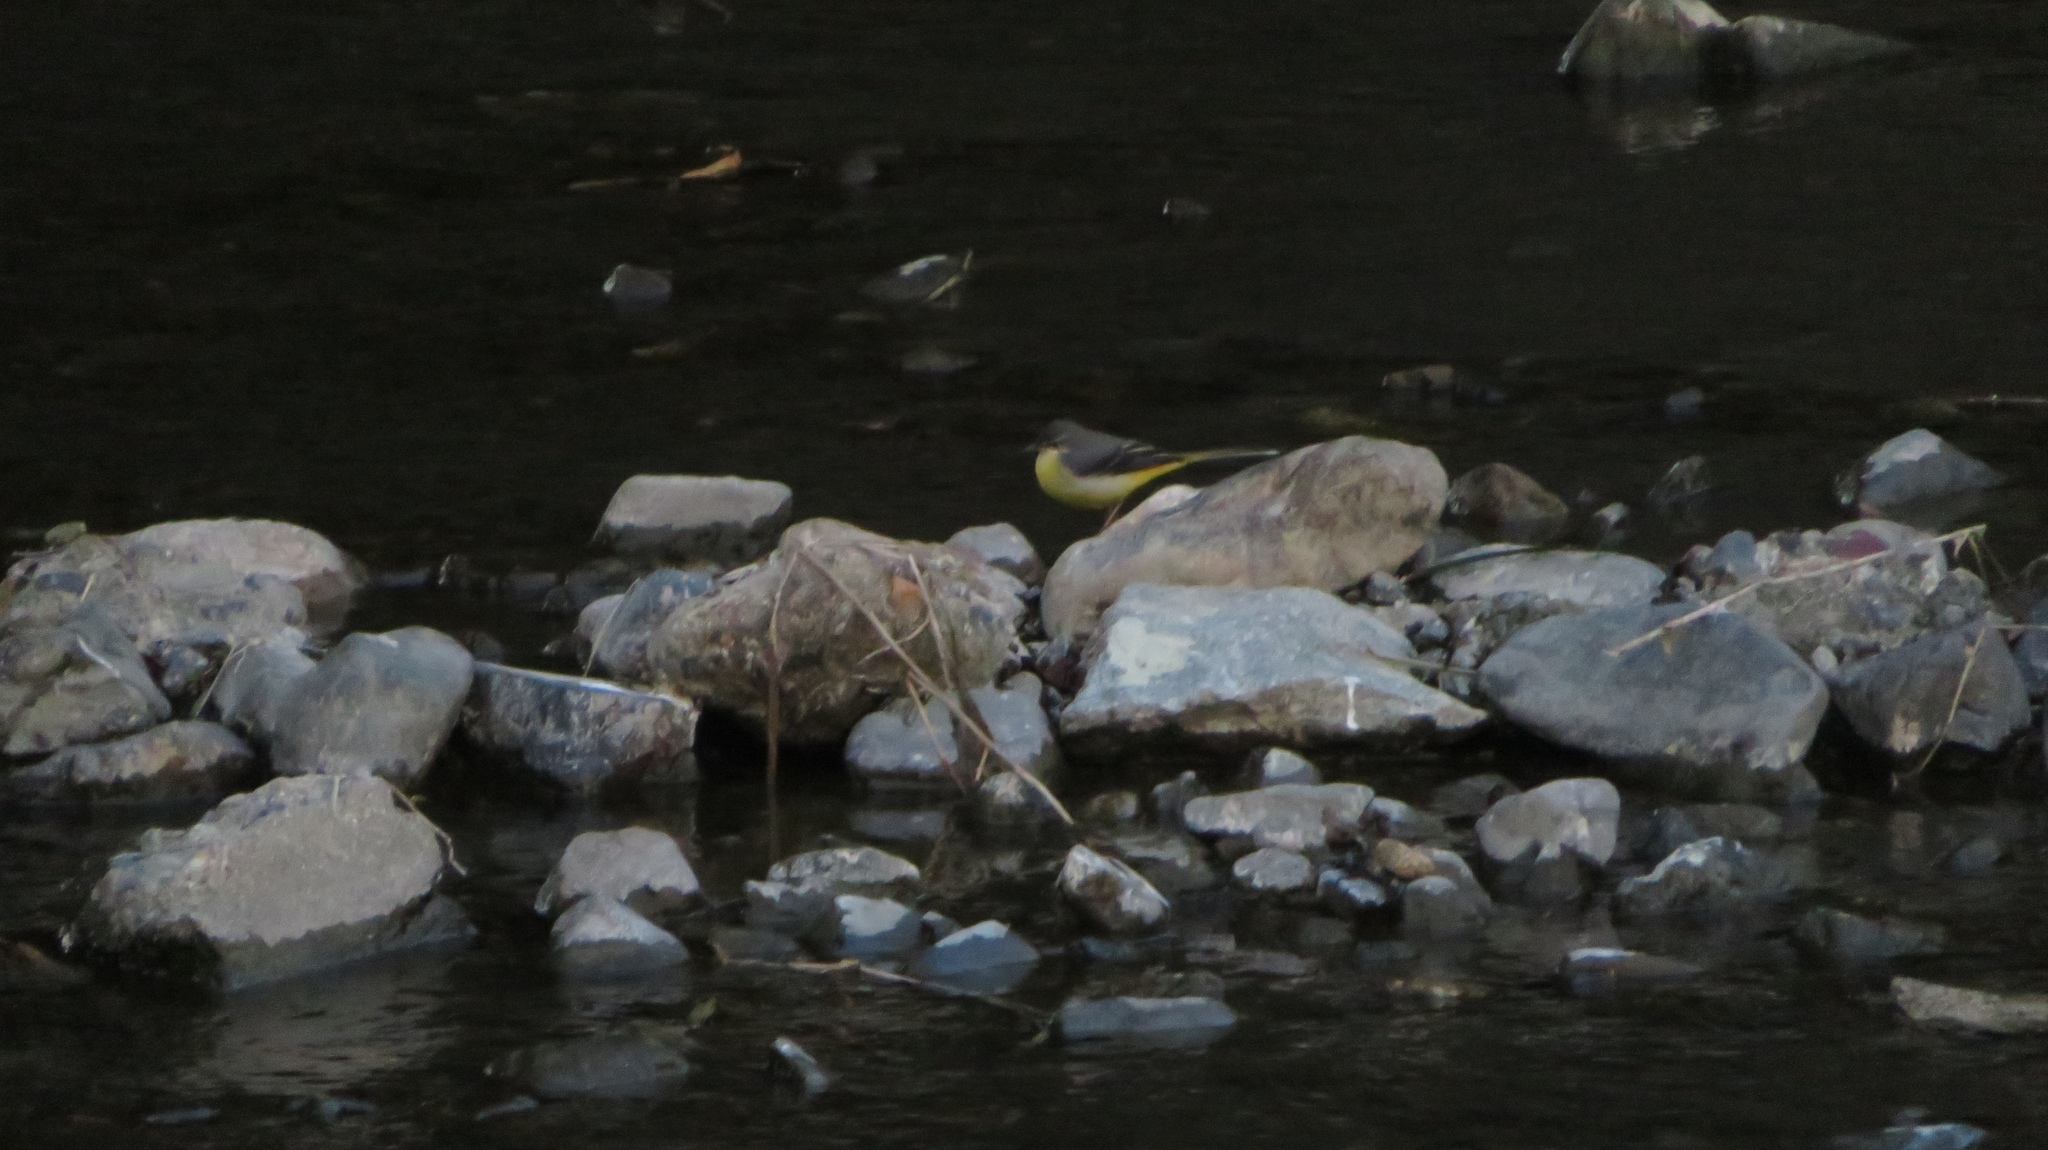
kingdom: Animalia
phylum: Chordata
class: Aves
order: Passeriformes
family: Motacillidae
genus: Motacilla
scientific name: Motacilla cinerea
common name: Grey wagtail
